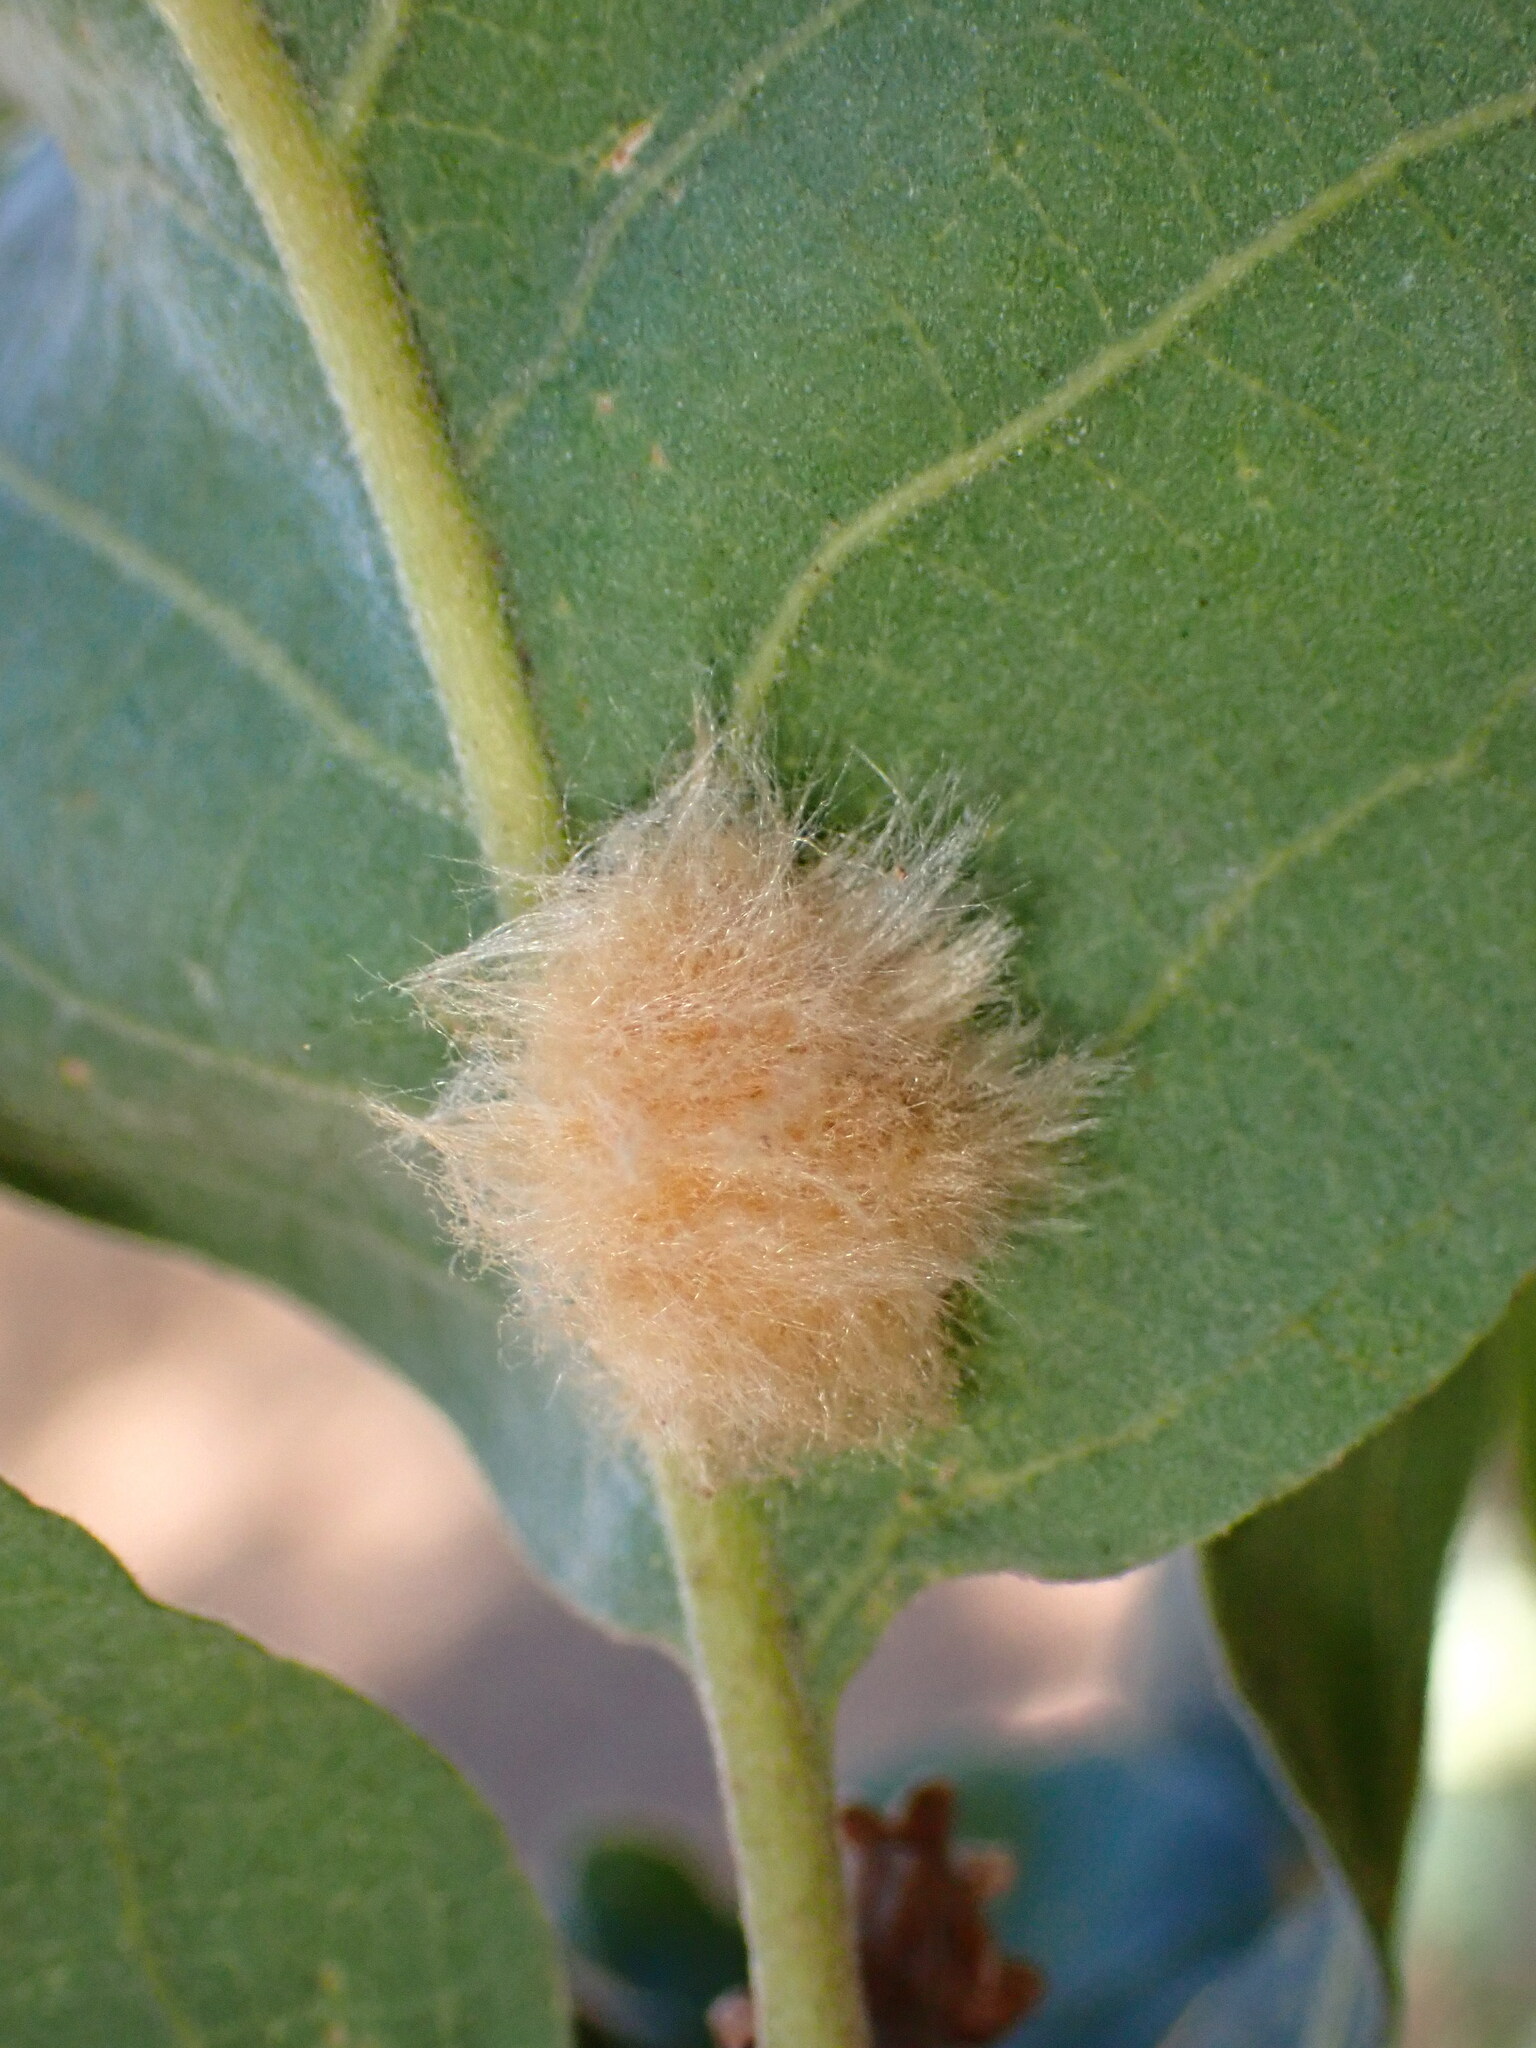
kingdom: Animalia
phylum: Arthropoda
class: Insecta
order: Hymenoptera
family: Cynipidae
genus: Andricus
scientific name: Andricus Druon fullawayi
